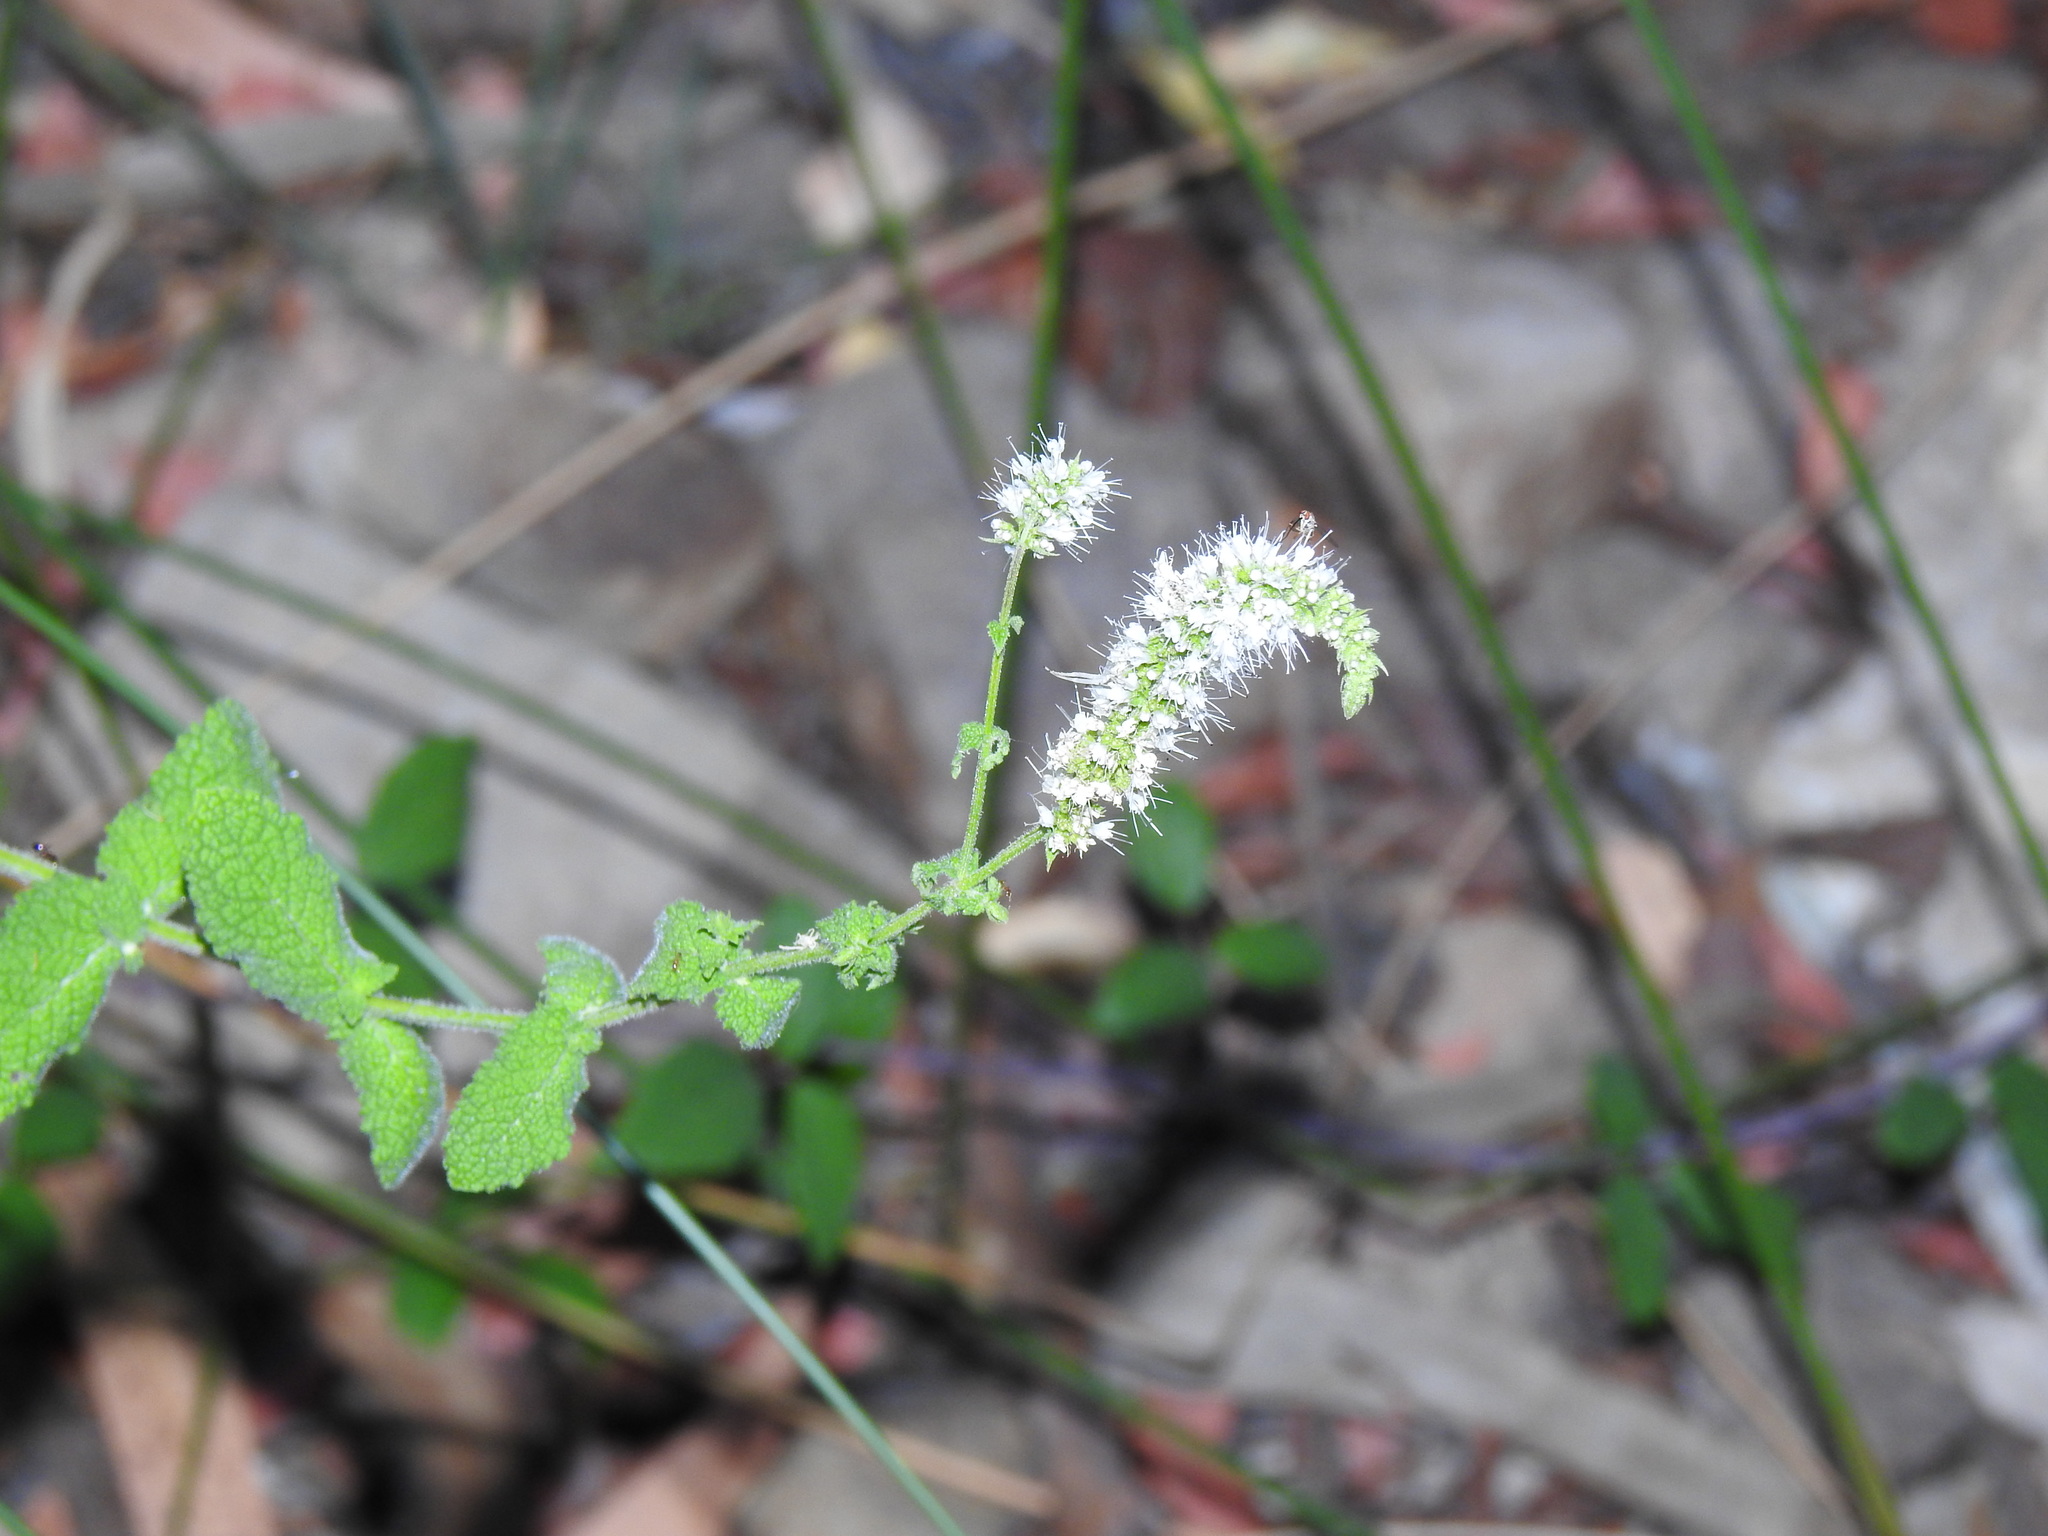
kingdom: Plantae
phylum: Tracheophyta
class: Magnoliopsida
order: Lamiales
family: Lamiaceae
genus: Mentha
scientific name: Mentha suaveolens
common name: Apple mint
